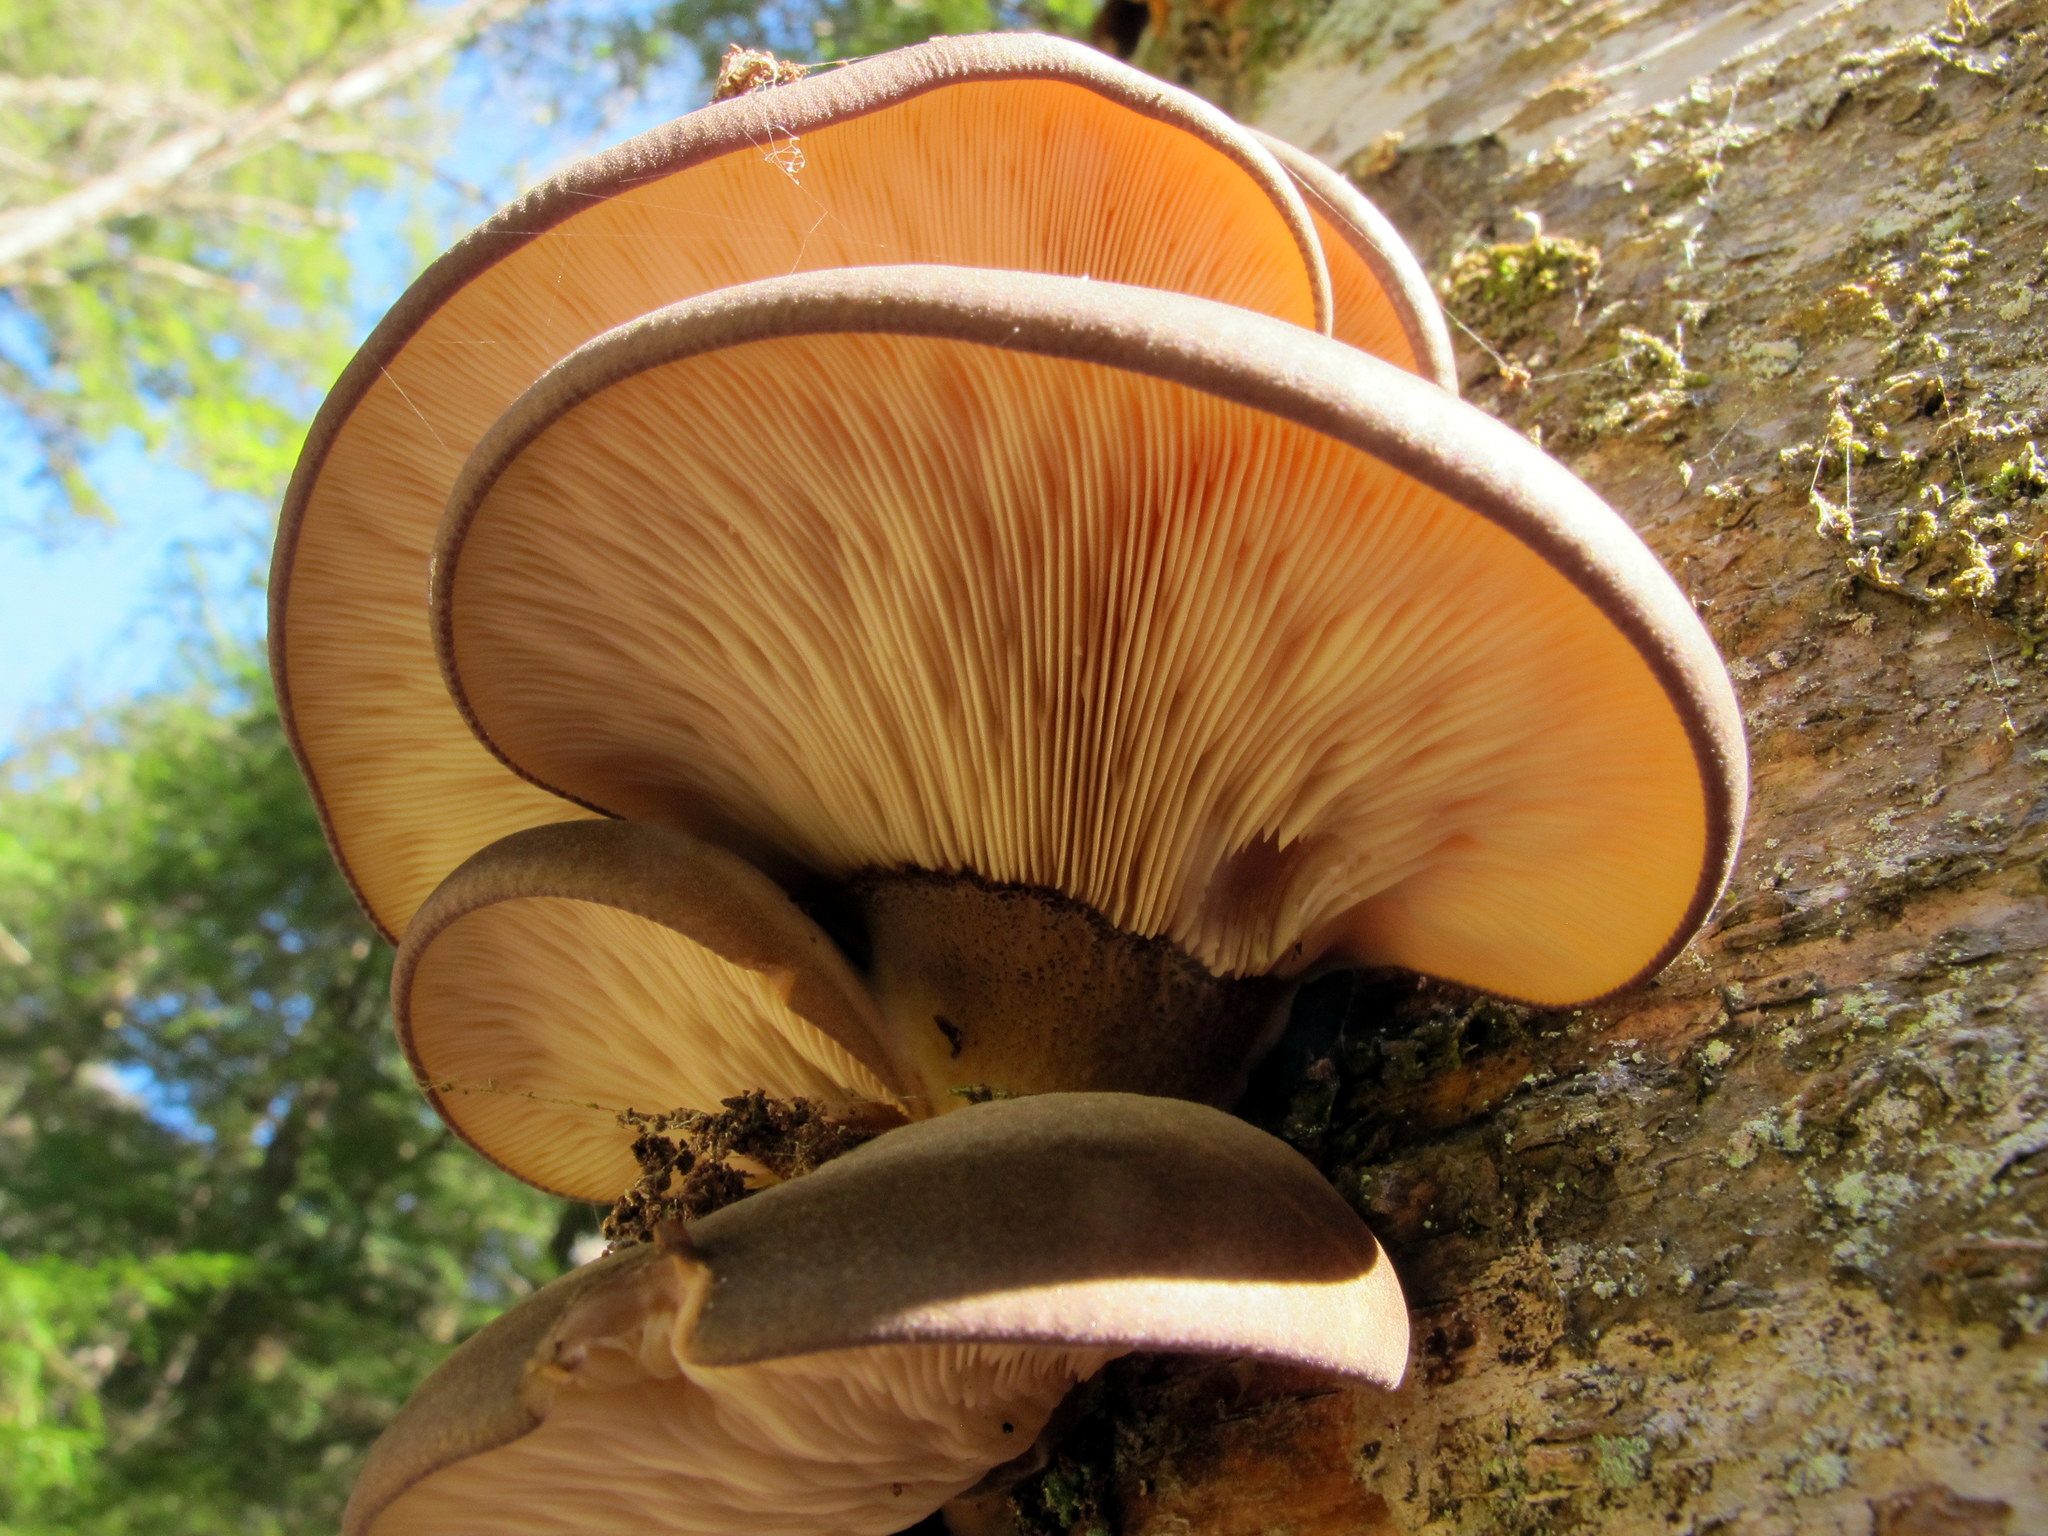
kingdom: Fungi
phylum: Basidiomycota
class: Agaricomycetes
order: Agaricales
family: Sarcomyxaceae
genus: Sarcomyxa
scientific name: Sarcomyxa serotina
